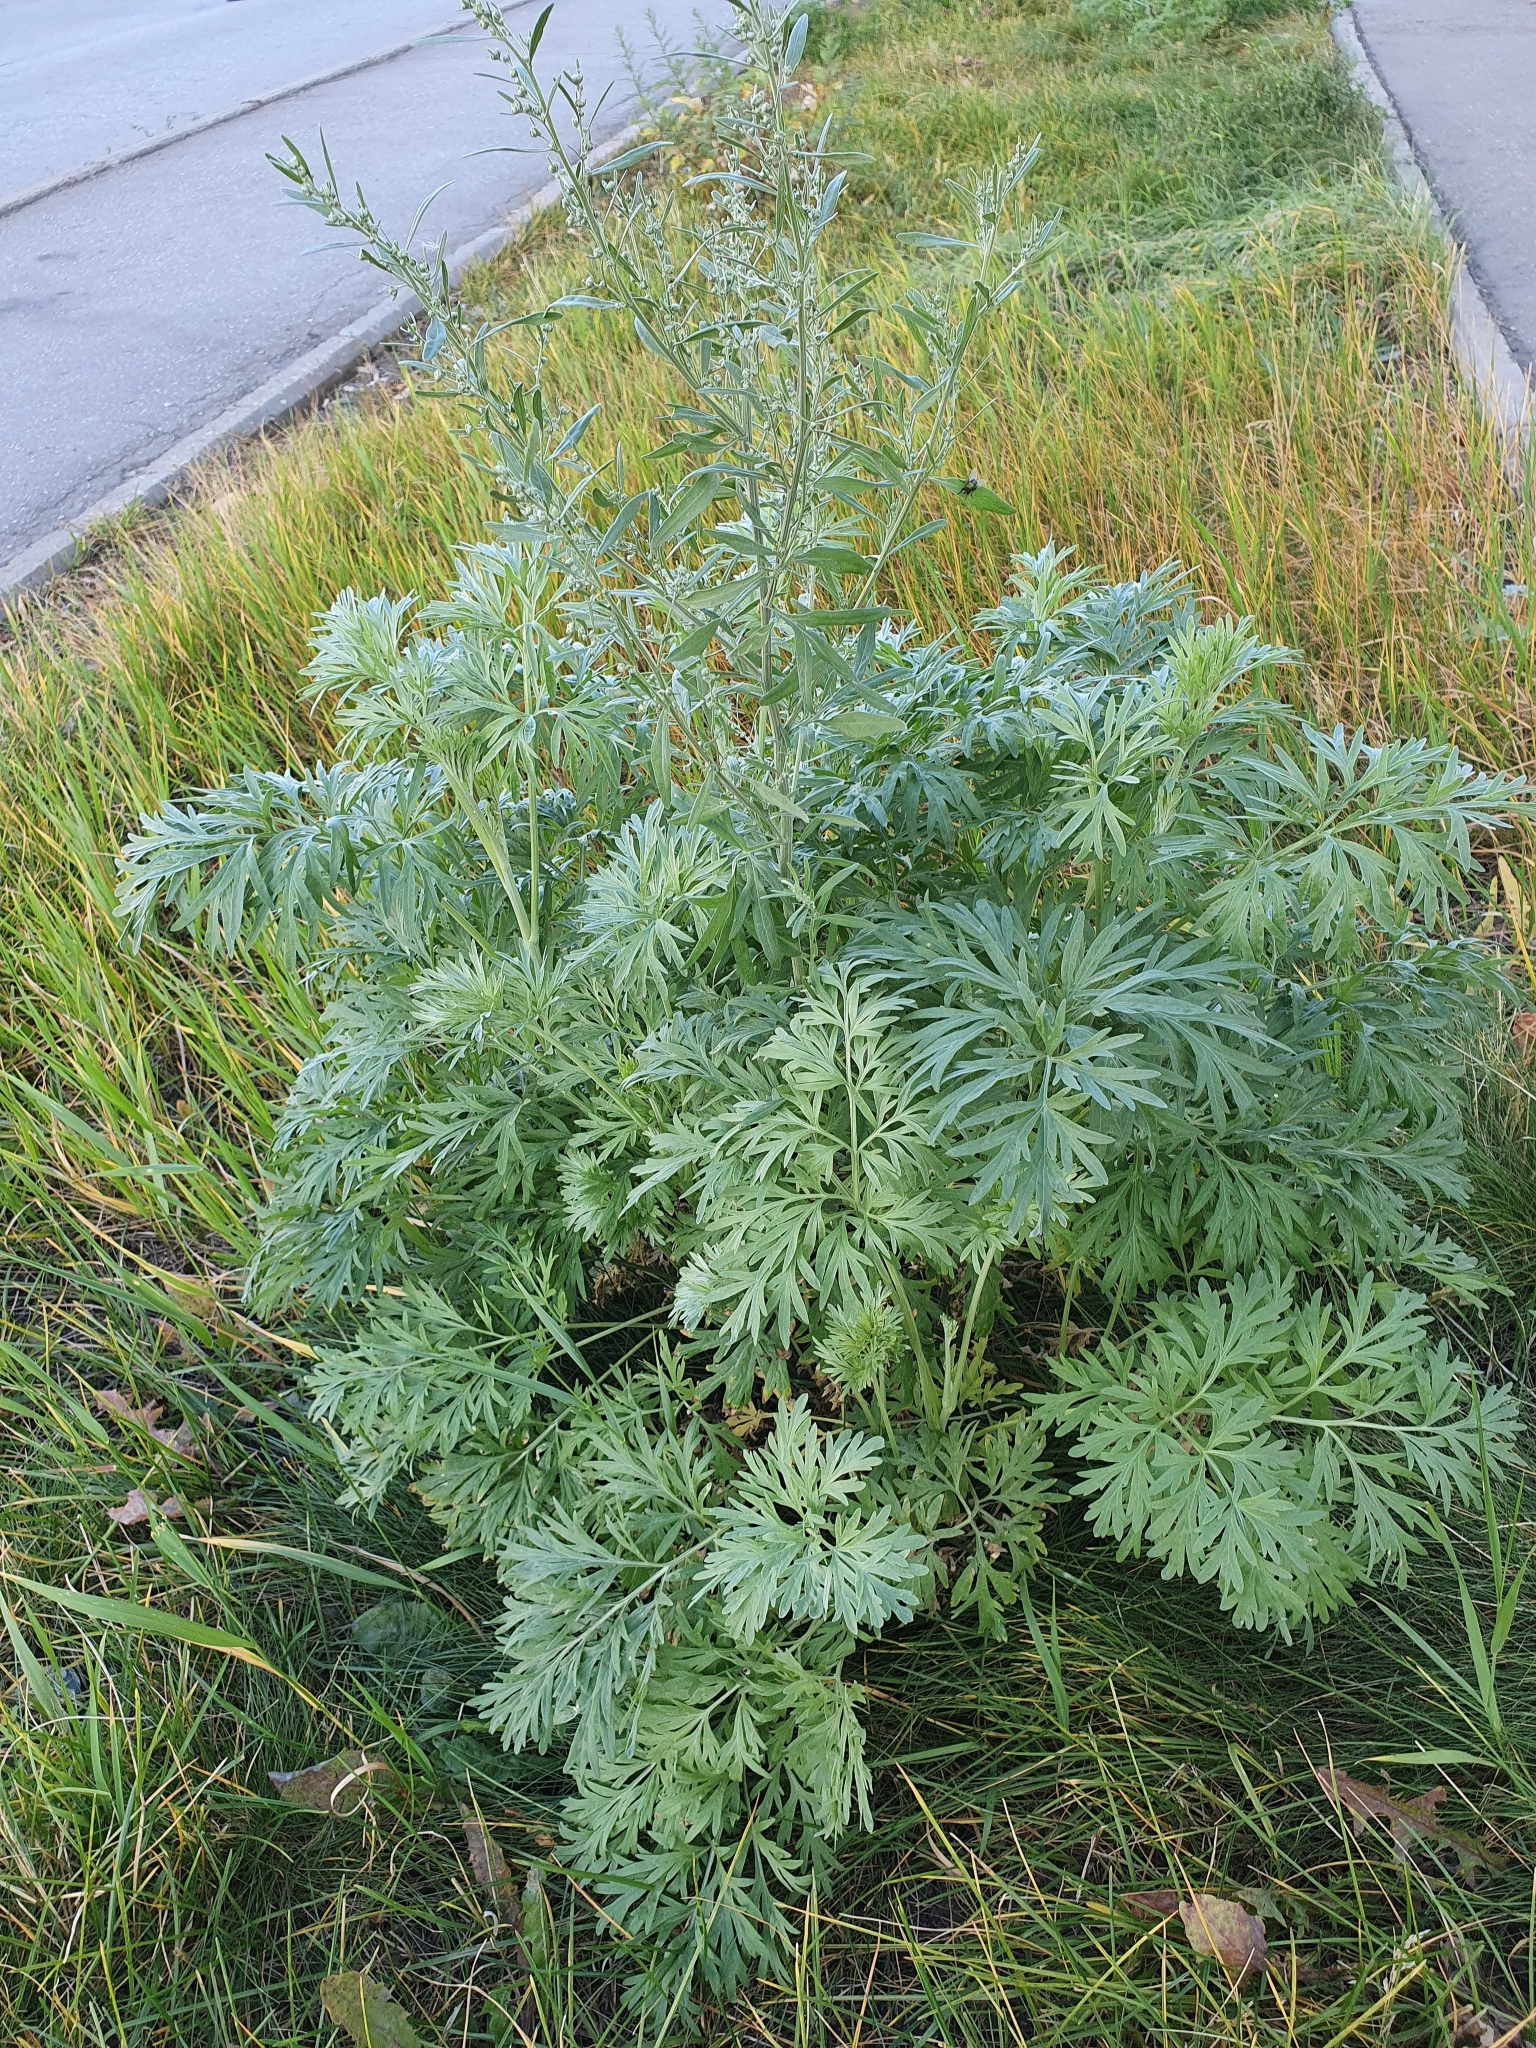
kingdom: Plantae
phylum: Tracheophyta
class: Magnoliopsida
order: Asterales
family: Asteraceae
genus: Artemisia
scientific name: Artemisia absinthium
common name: Wormwood
